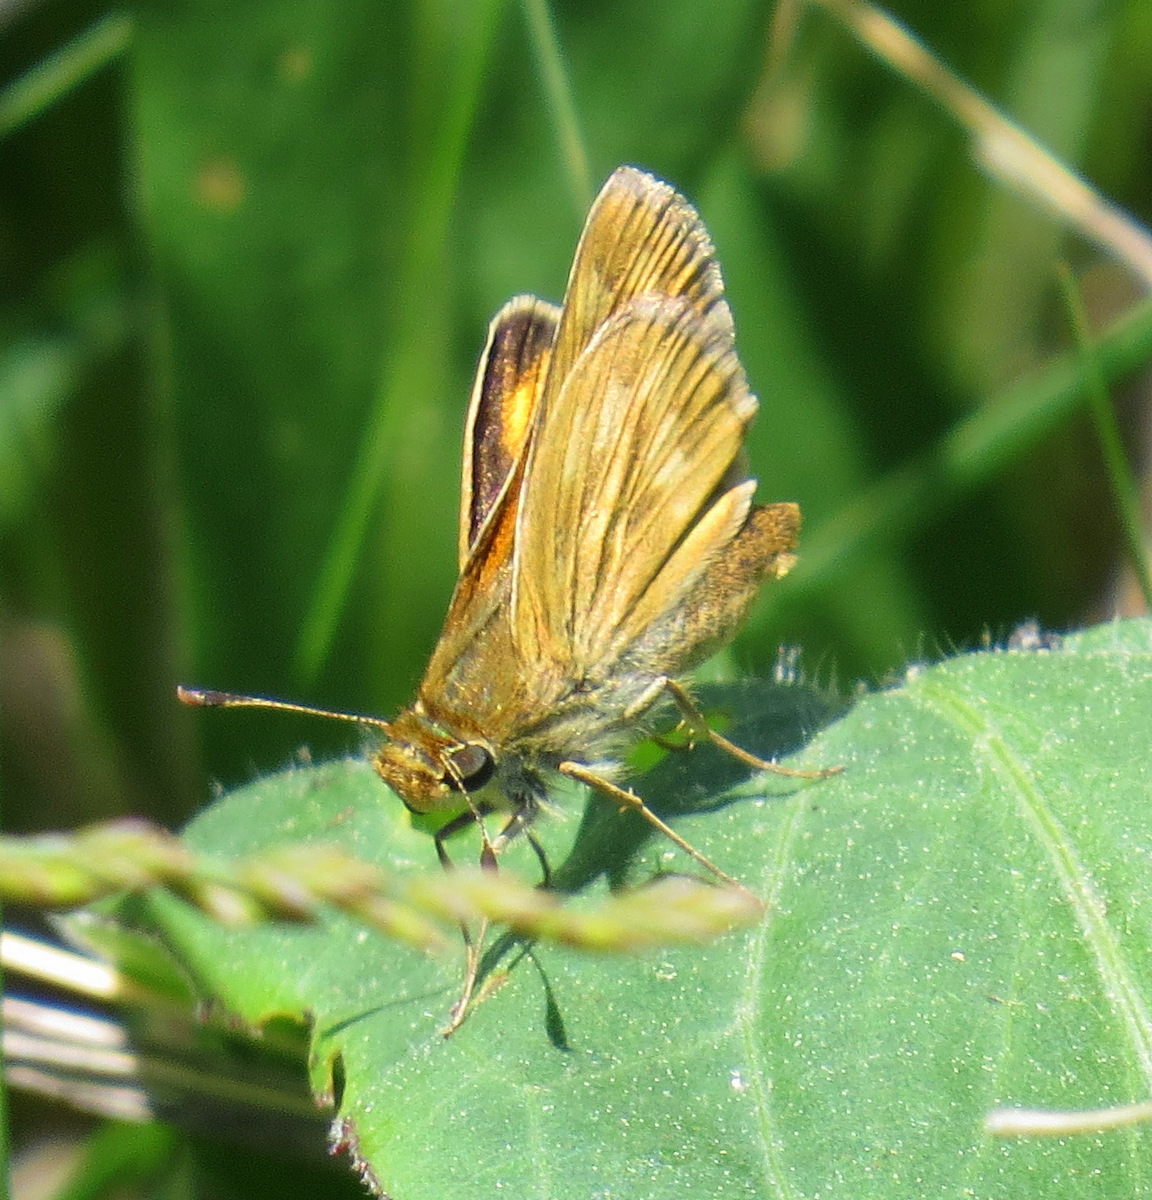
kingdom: Animalia
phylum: Arthropoda
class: Insecta
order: Lepidoptera
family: Hesperiidae
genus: Hesperia
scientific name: Hesperia sassacus
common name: Indian skipper
